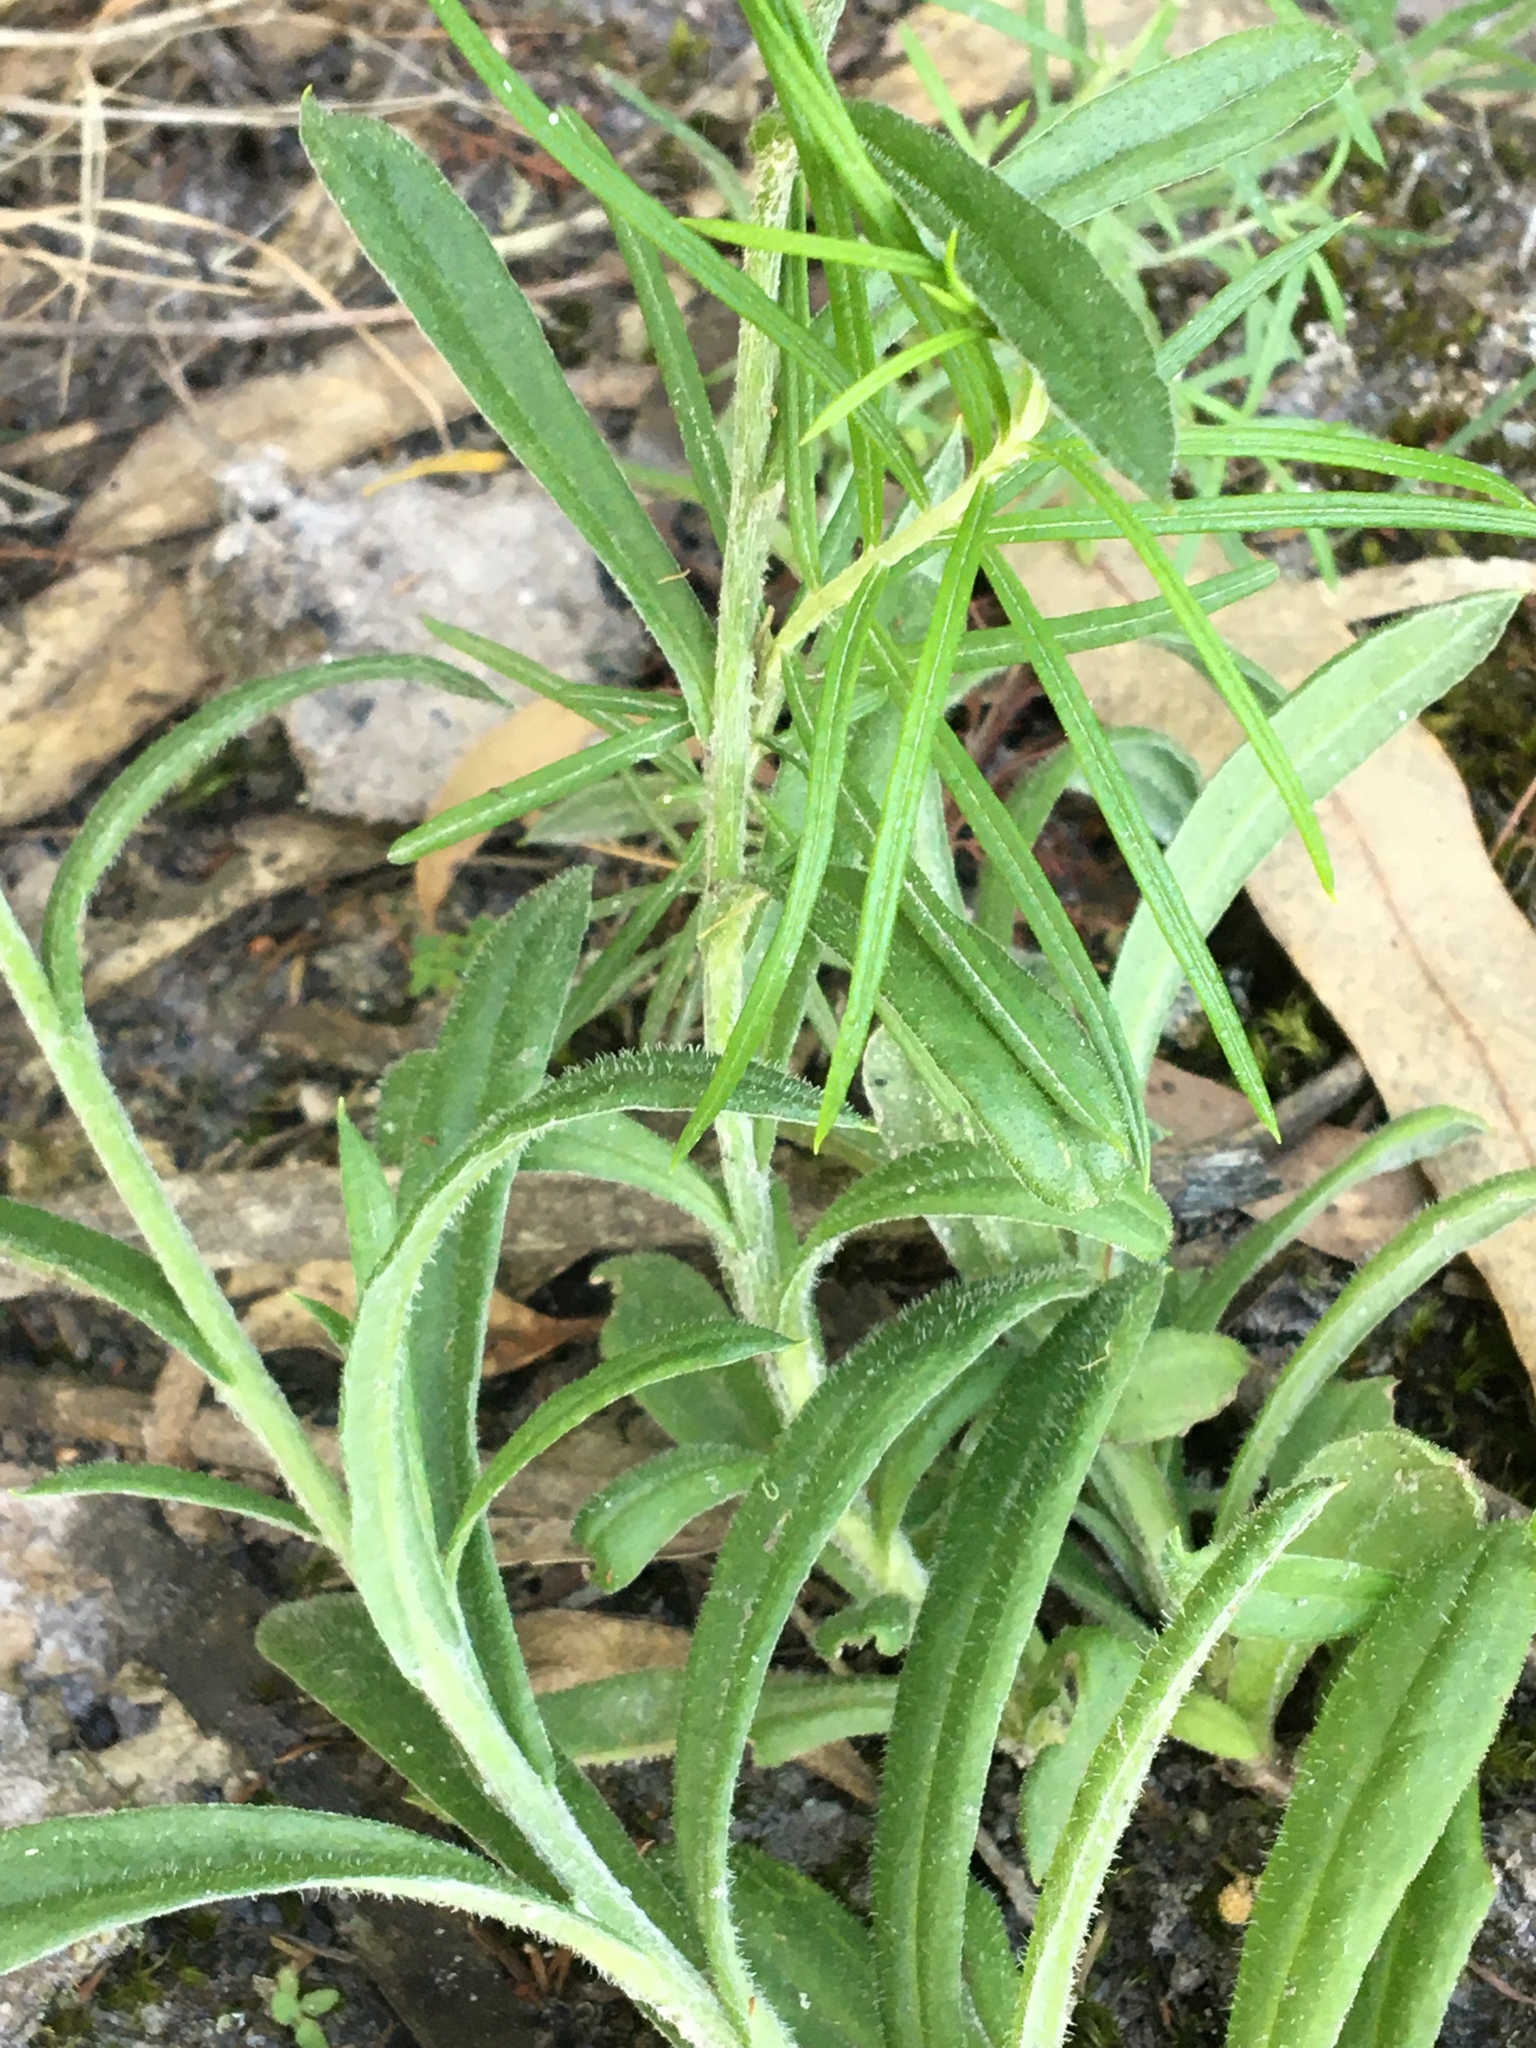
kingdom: Plantae
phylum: Tracheophyta
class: Magnoliopsida
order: Asterales
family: Asteraceae
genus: Coronidium
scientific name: Coronidium scorpioides
